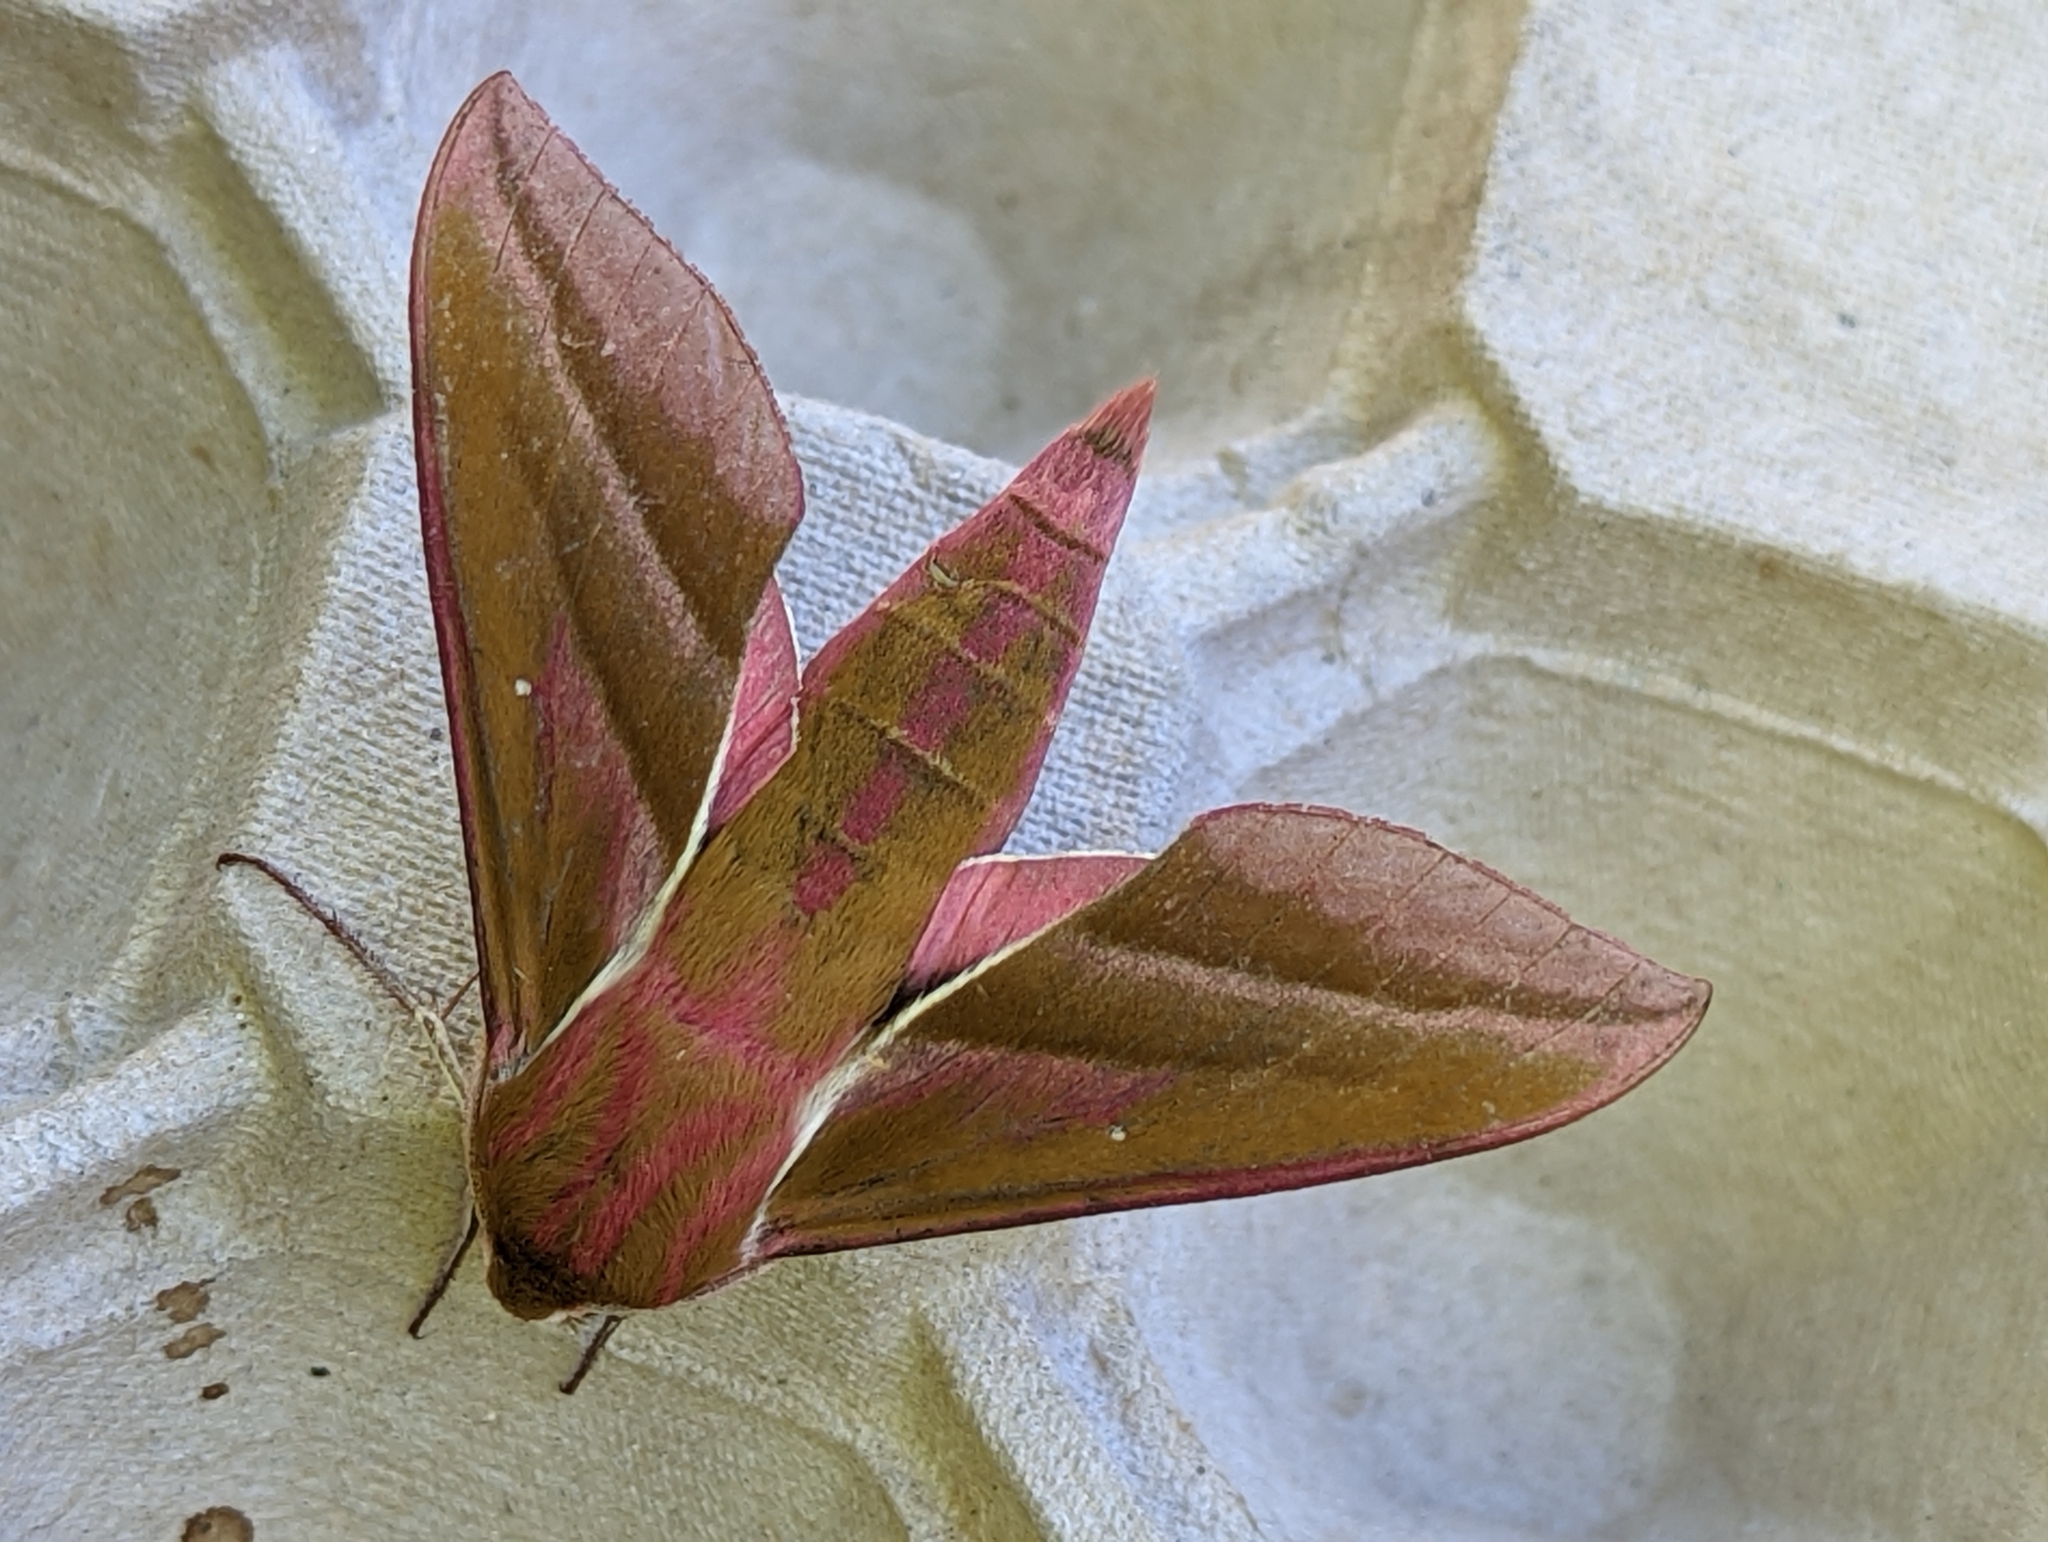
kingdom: Animalia
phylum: Arthropoda
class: Insecta
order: Lepidoptera
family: Sphingidae
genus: Deilephila
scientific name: Deilephila elpenor
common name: Elephant hawk-moth
